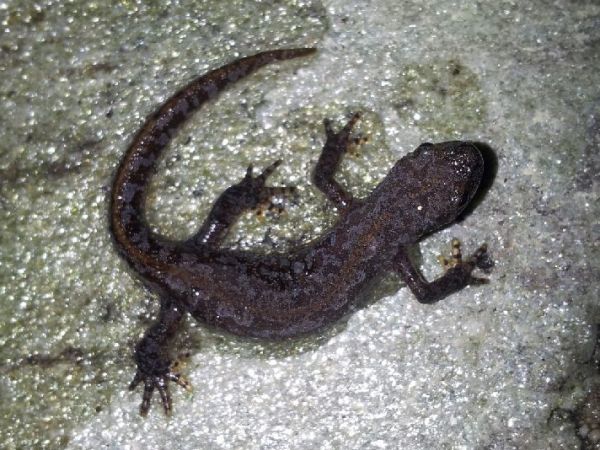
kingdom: Animalia
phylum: Chordata
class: Amphibia
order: Caudata
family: Salamandridae
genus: Ichthyosaura
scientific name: Ichthyosaura alpestris
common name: Alpine newt
